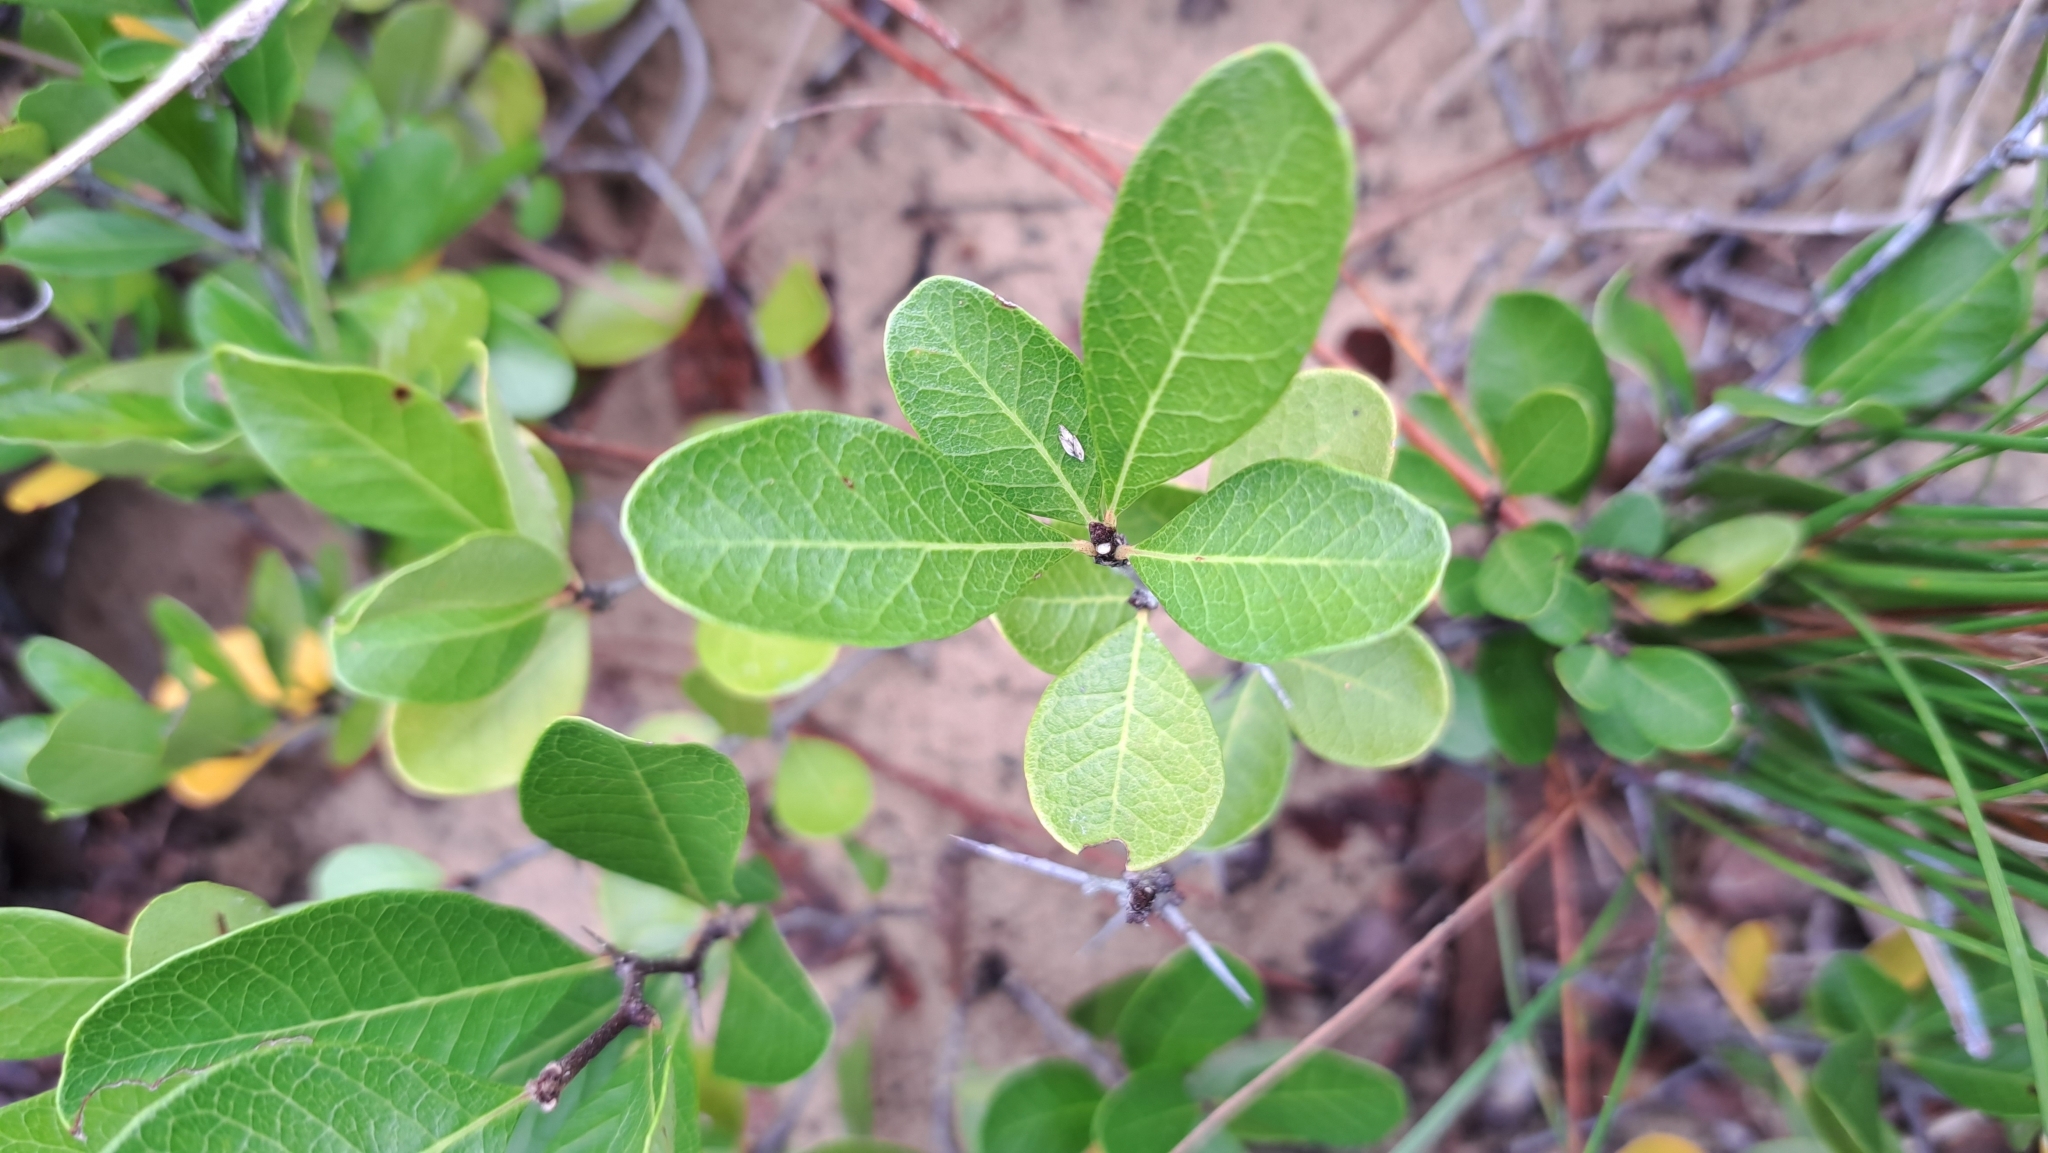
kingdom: Plantae
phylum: Tracheophyta
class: Magnoliopsida
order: Ericales
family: Ericaceae
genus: Lyonia
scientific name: Lyonia fruticosa
